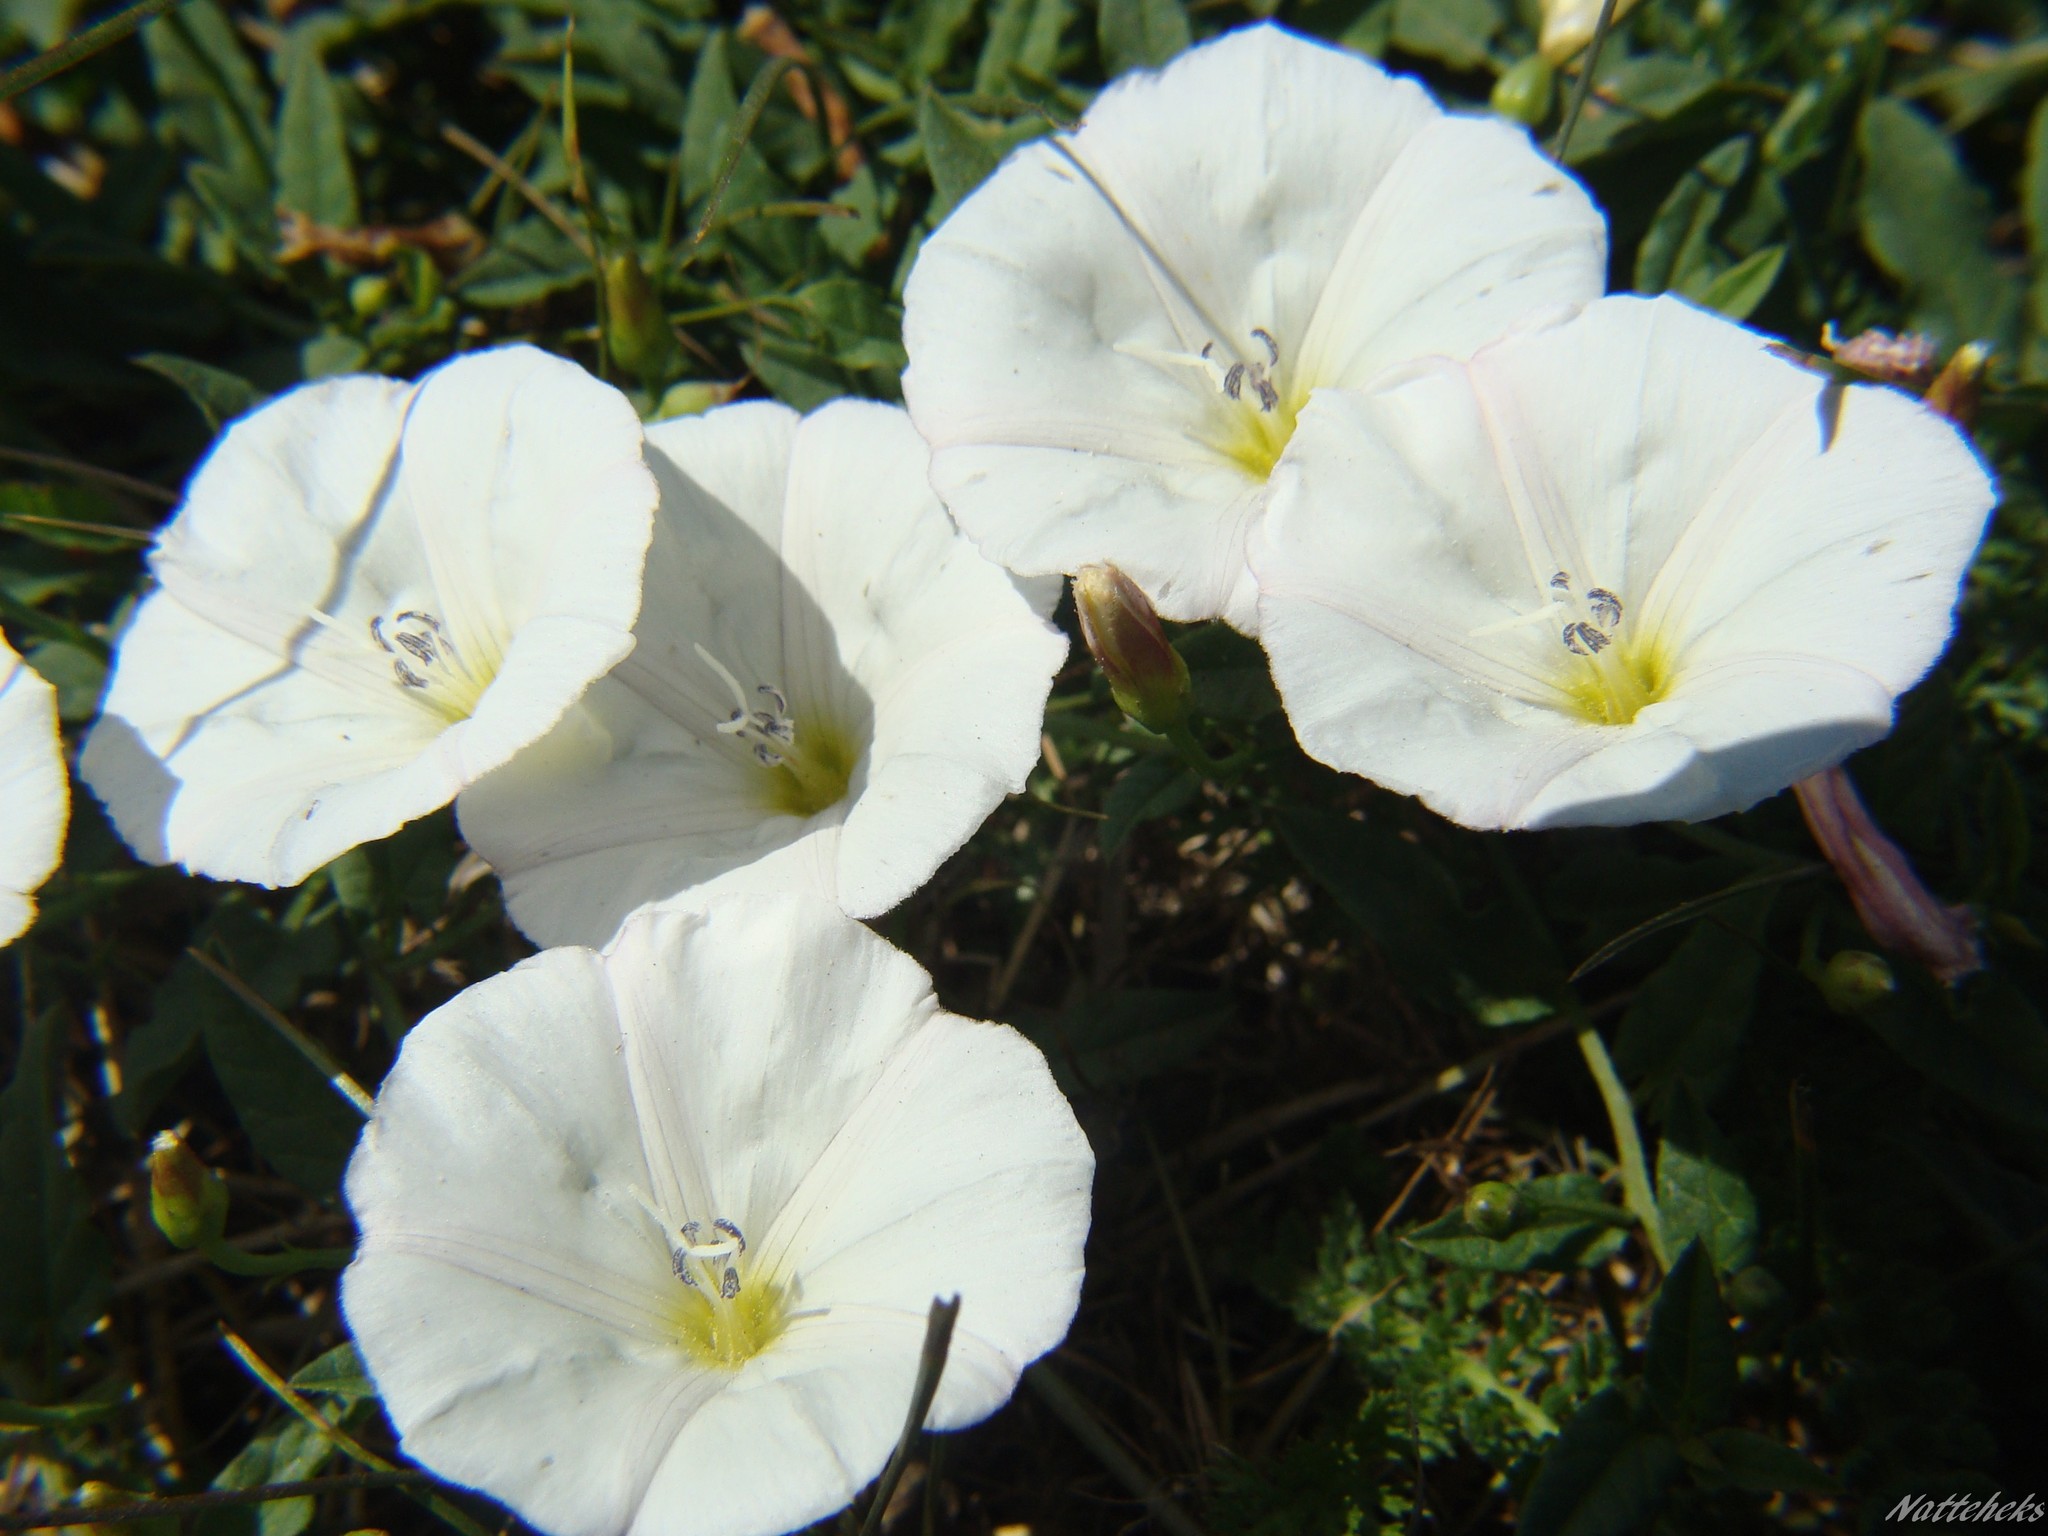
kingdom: Plantae
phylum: Tracheophyta
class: Magnoliopsida
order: Solanales
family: Convolvulaceae
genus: Convolvulus
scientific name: Convolvulus arvensis
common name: Field bindweed
